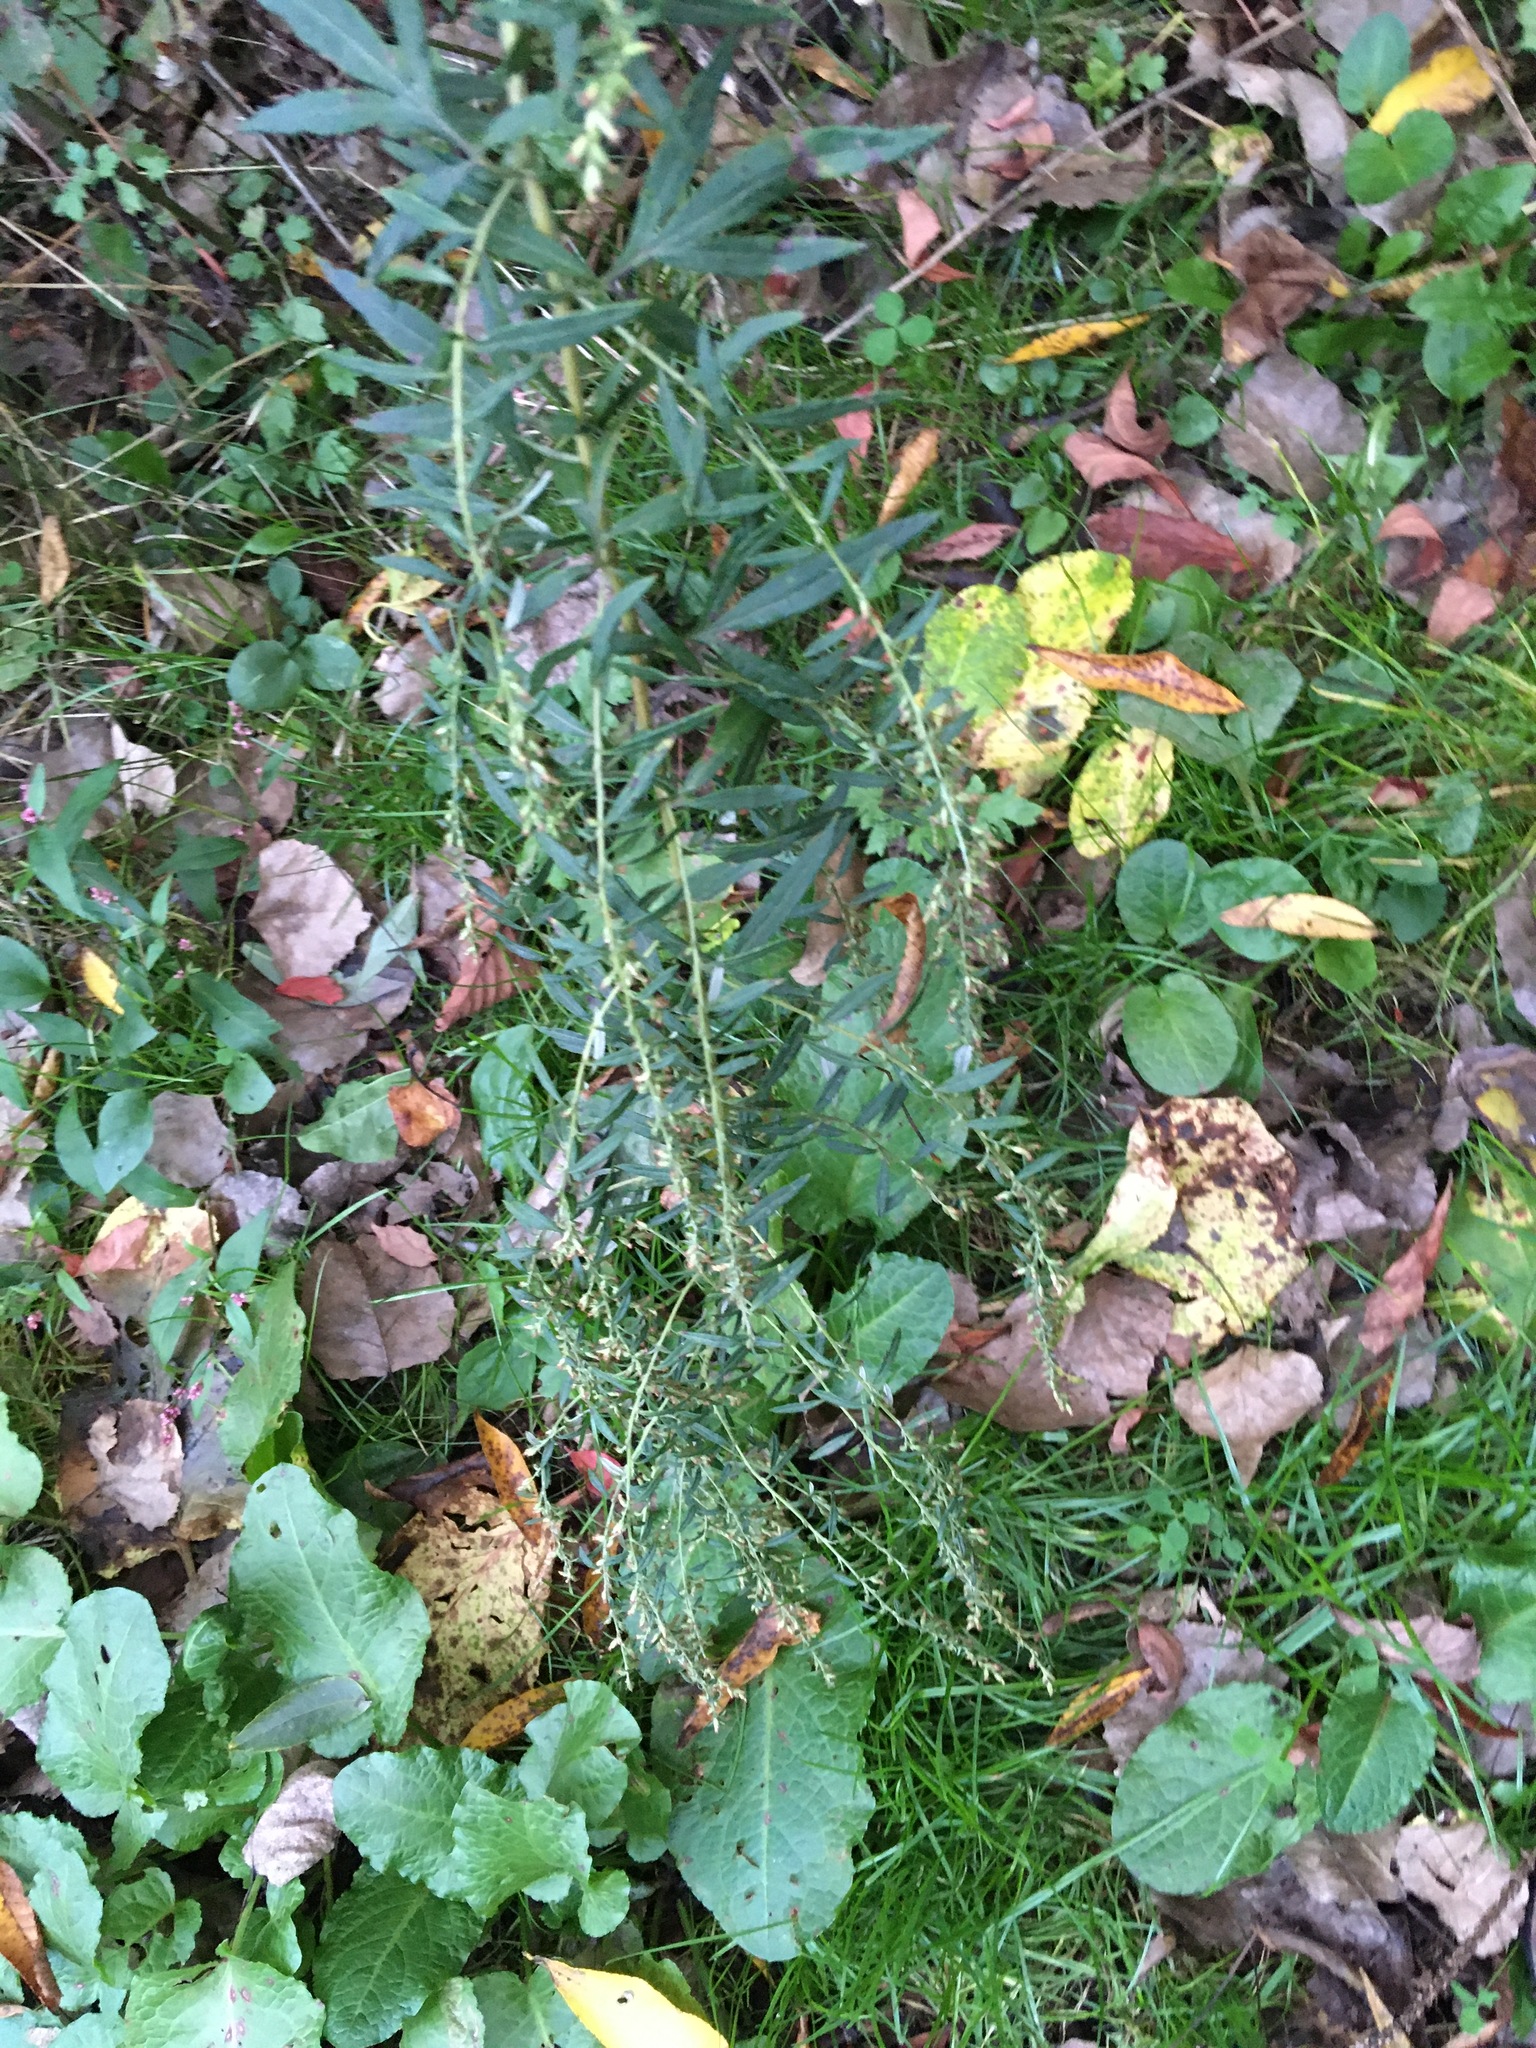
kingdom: Plantae
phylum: Tracheophyta
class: Magnoliopsida
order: Asterales
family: Asteraceae
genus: Artemisia
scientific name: Artemisia vulgaris
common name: Mugwort
